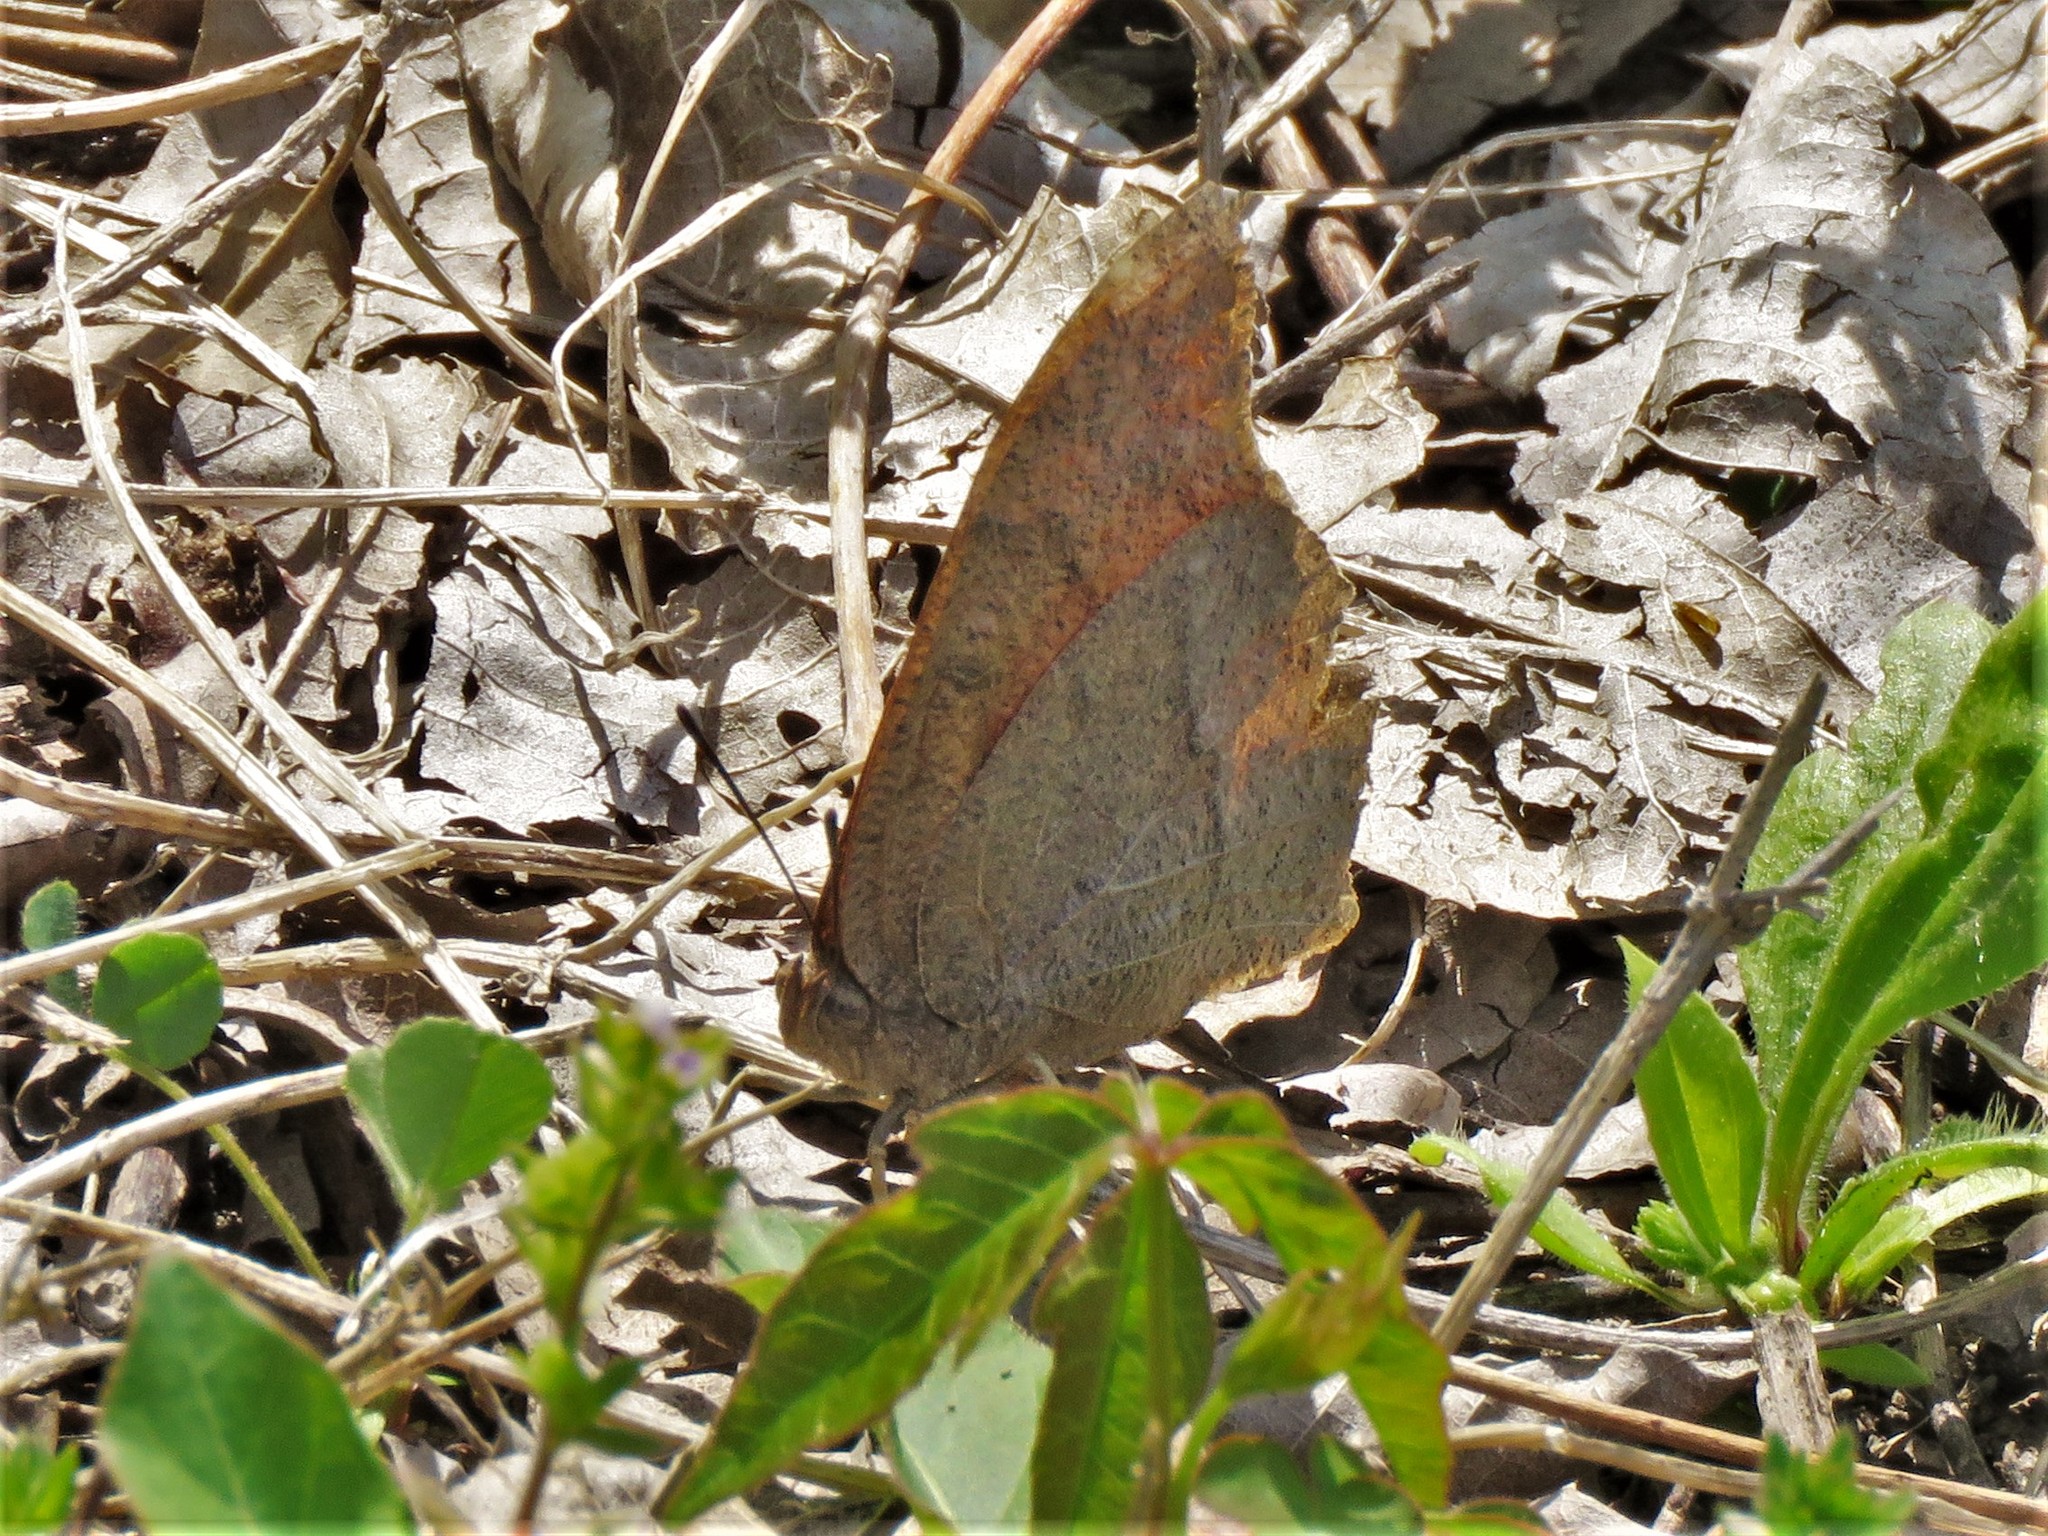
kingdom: Animalia
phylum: Arthropoda
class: Insecta
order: Lepidoptera
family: Nymphalidae
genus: Anaea
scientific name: Anaea andria
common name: Goatweed leafwing
